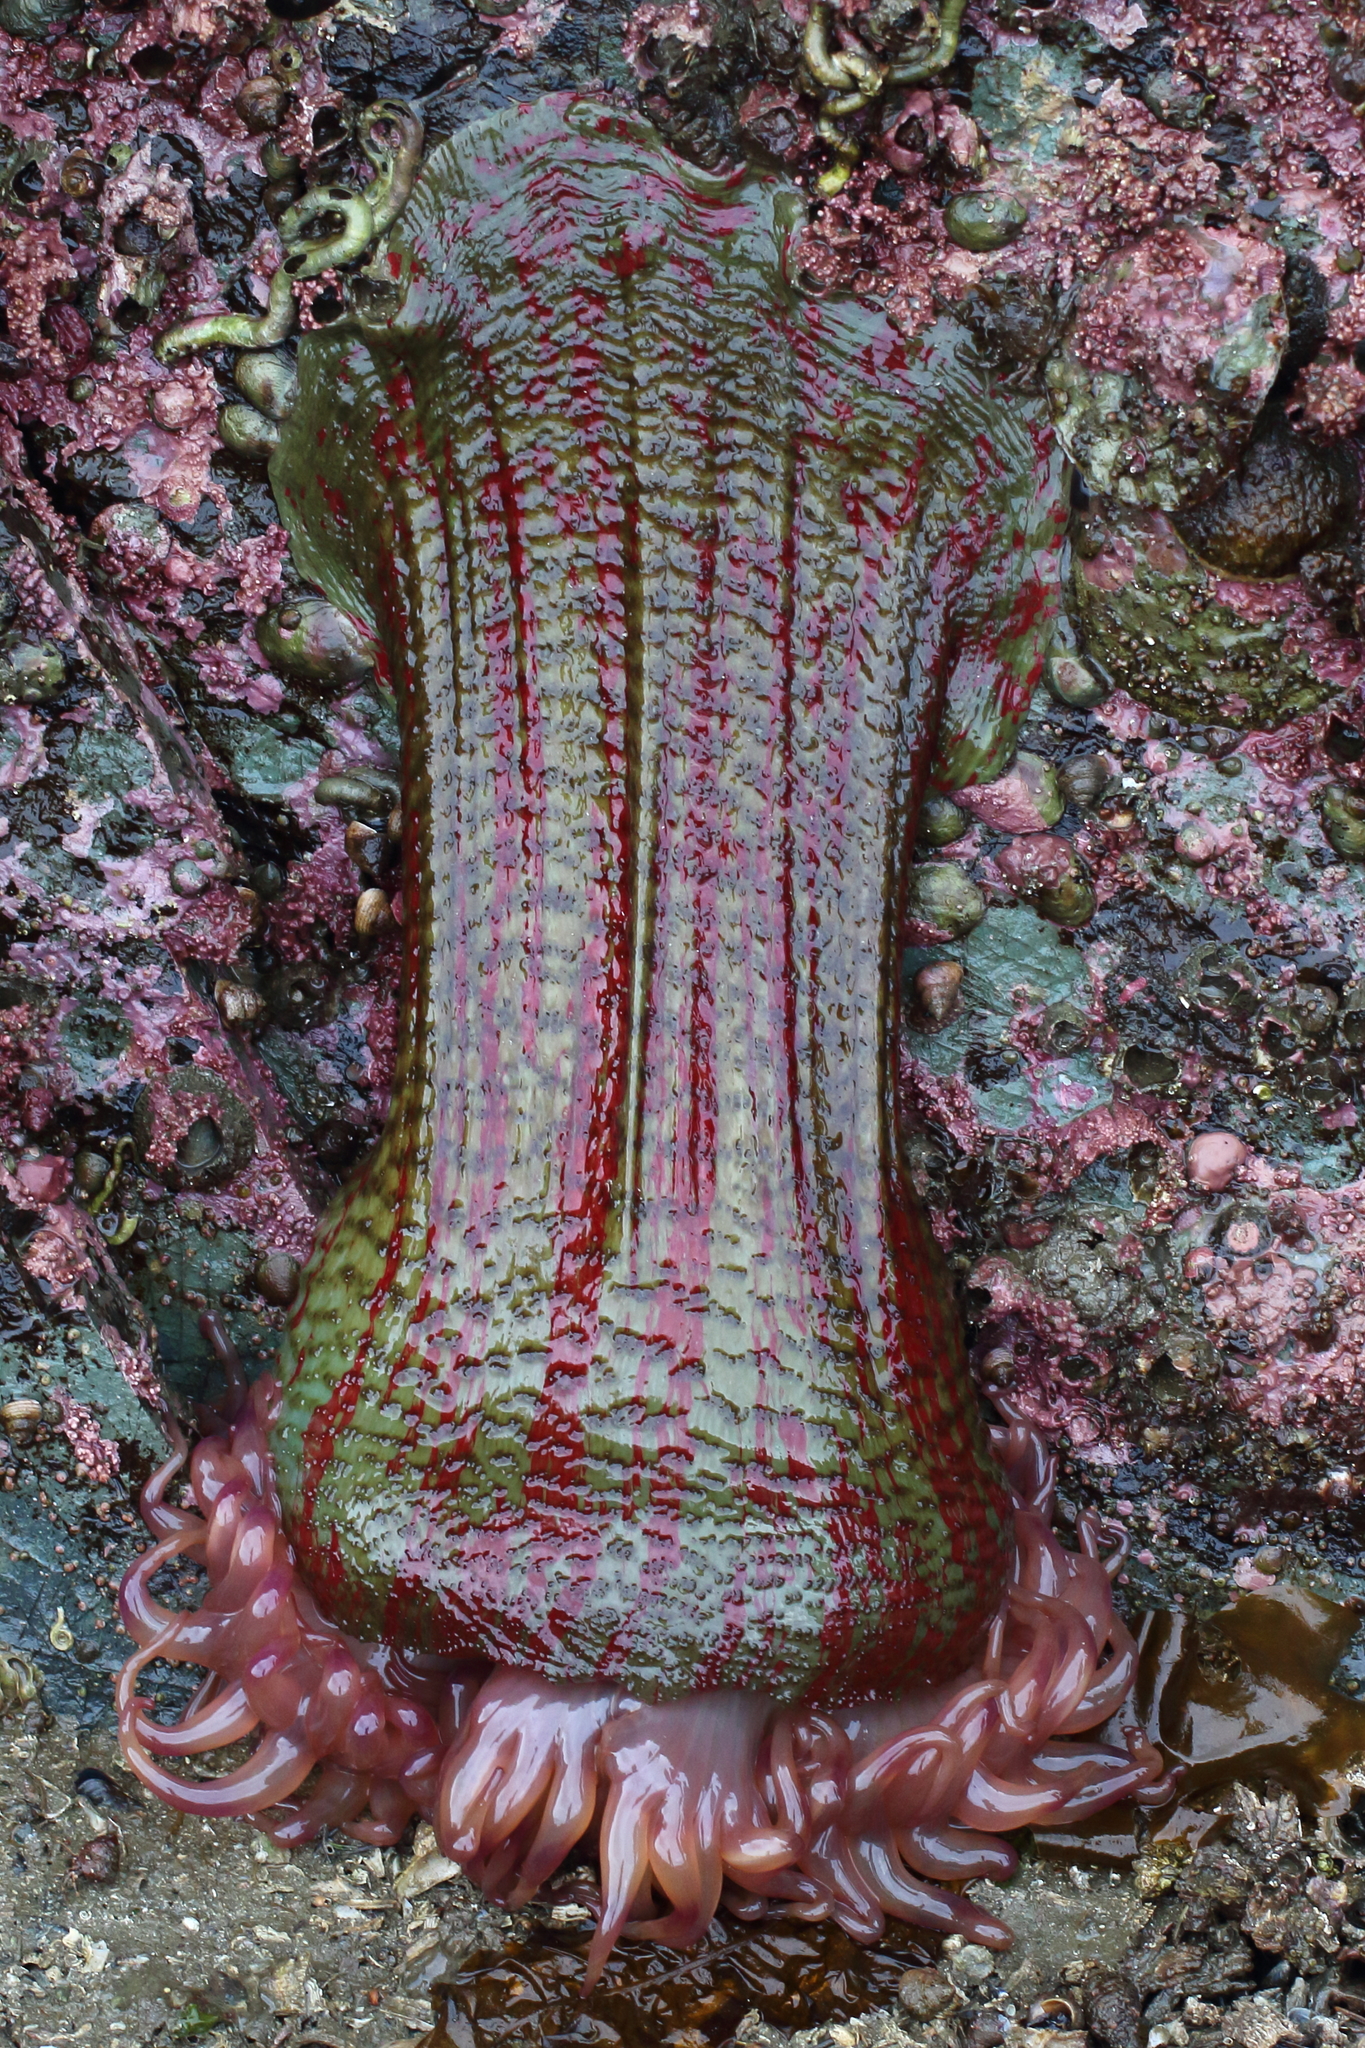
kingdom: Animalia
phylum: Cnidaria
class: Anthozoa
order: Actiniaria
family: Actiniidae
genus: Urticina
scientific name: Urticina grebelnyi
